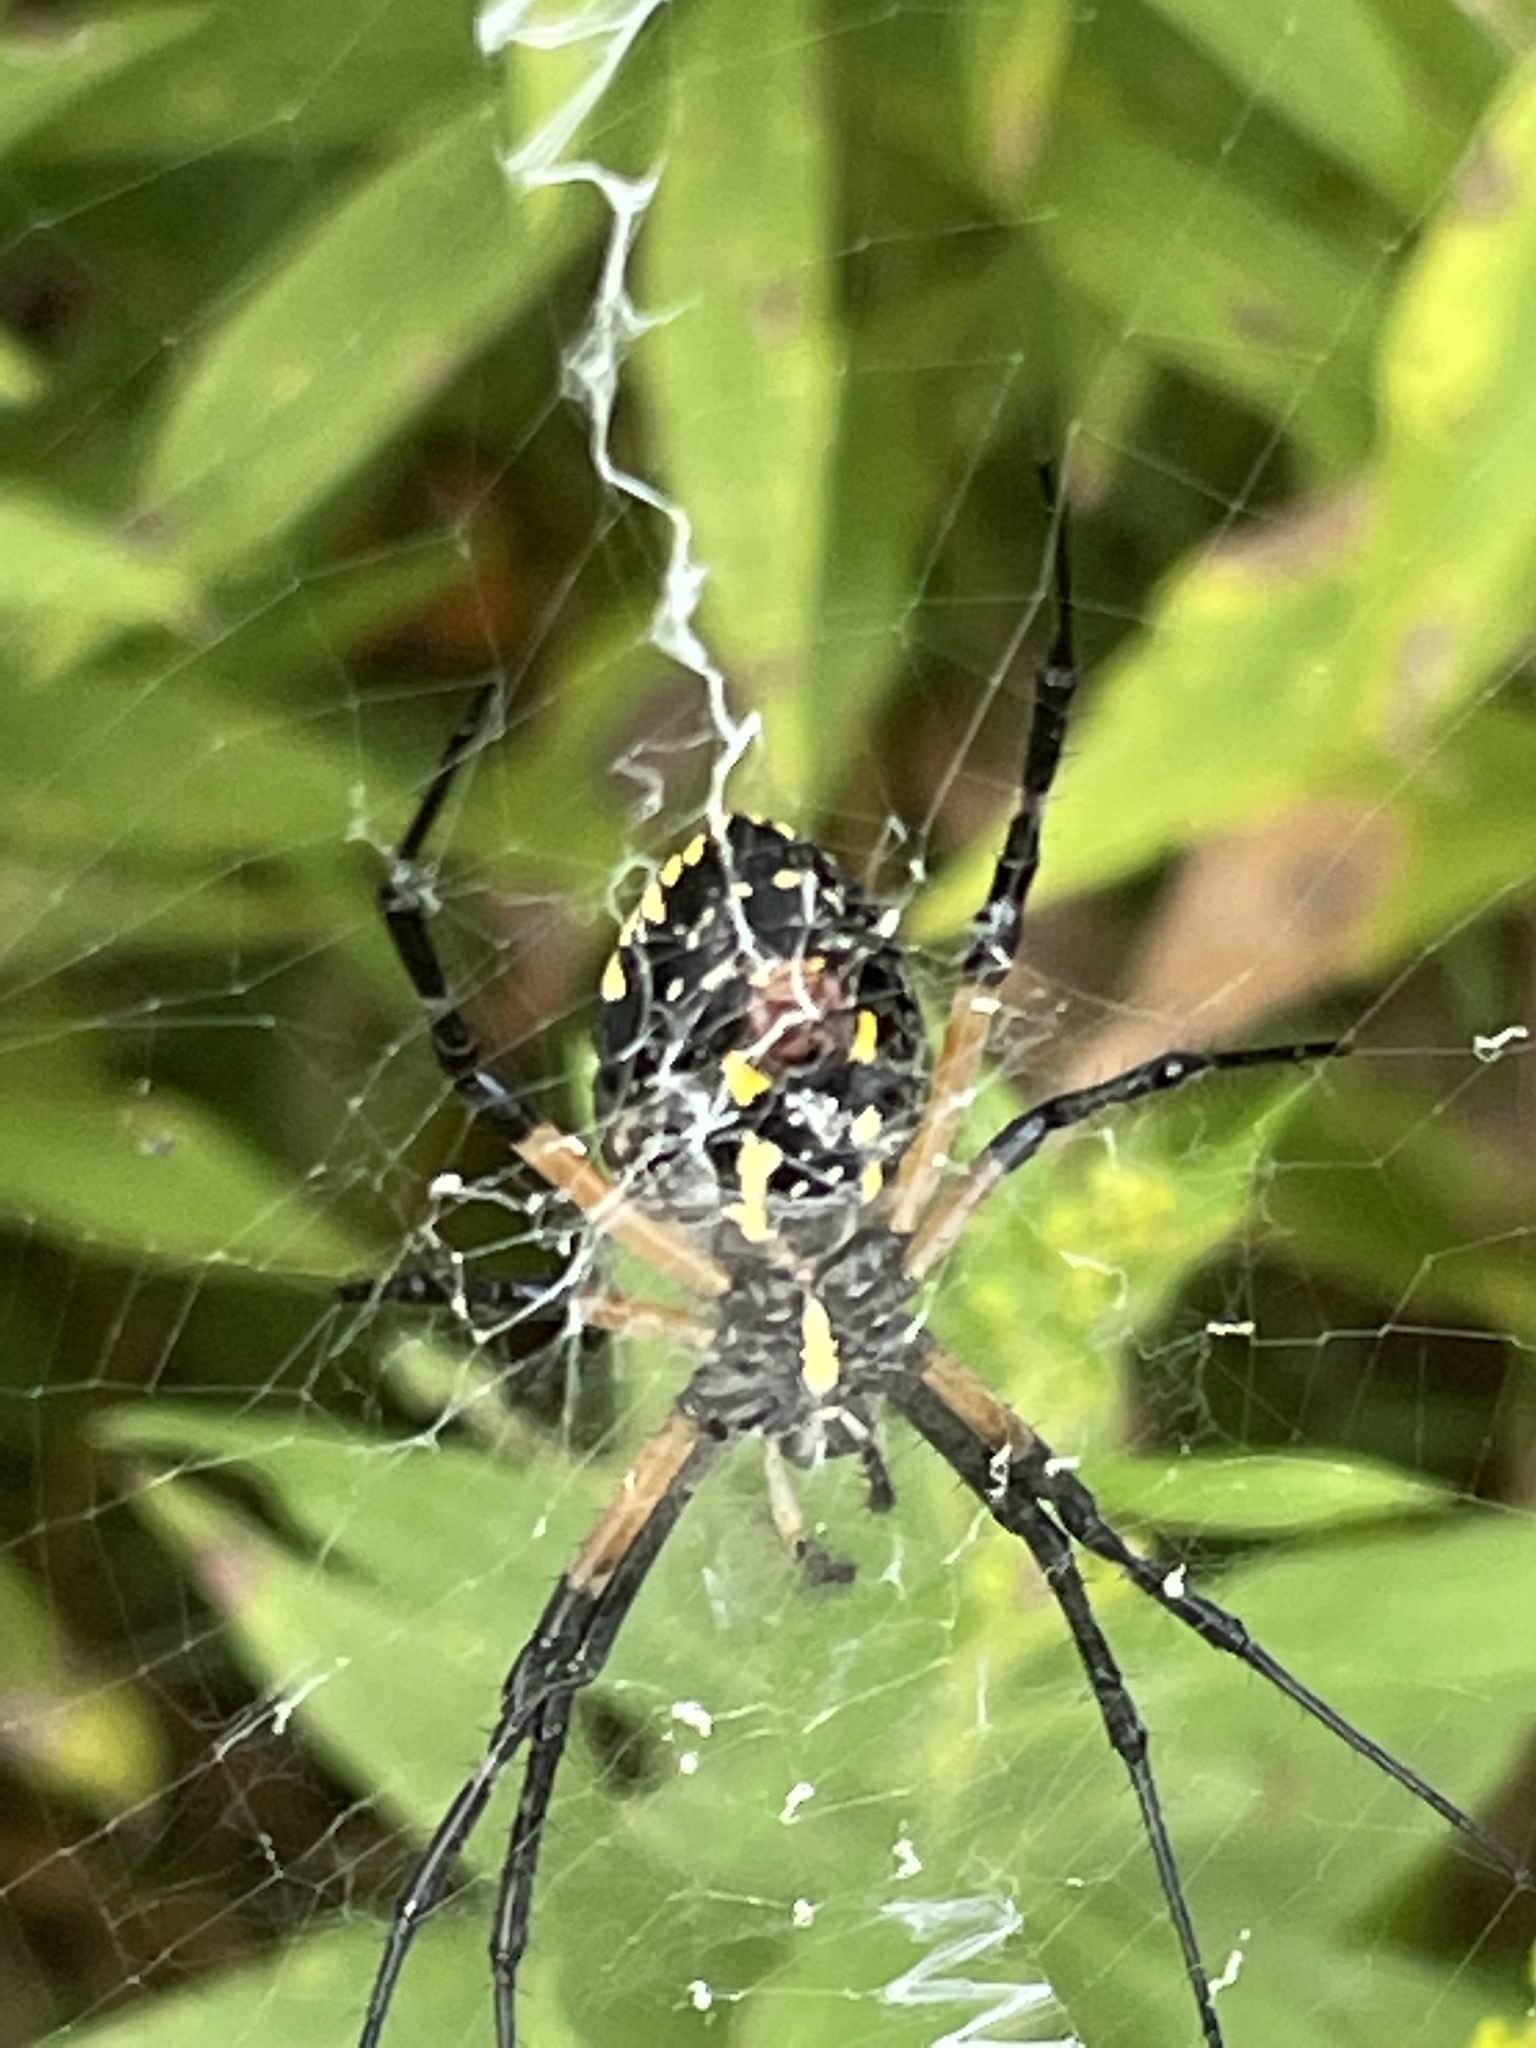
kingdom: Animalia
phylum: Arthropoda
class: Arachnida
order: Araneae
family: Araneidae
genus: Argiope
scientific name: Argiope aurantia
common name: Orb weavers
